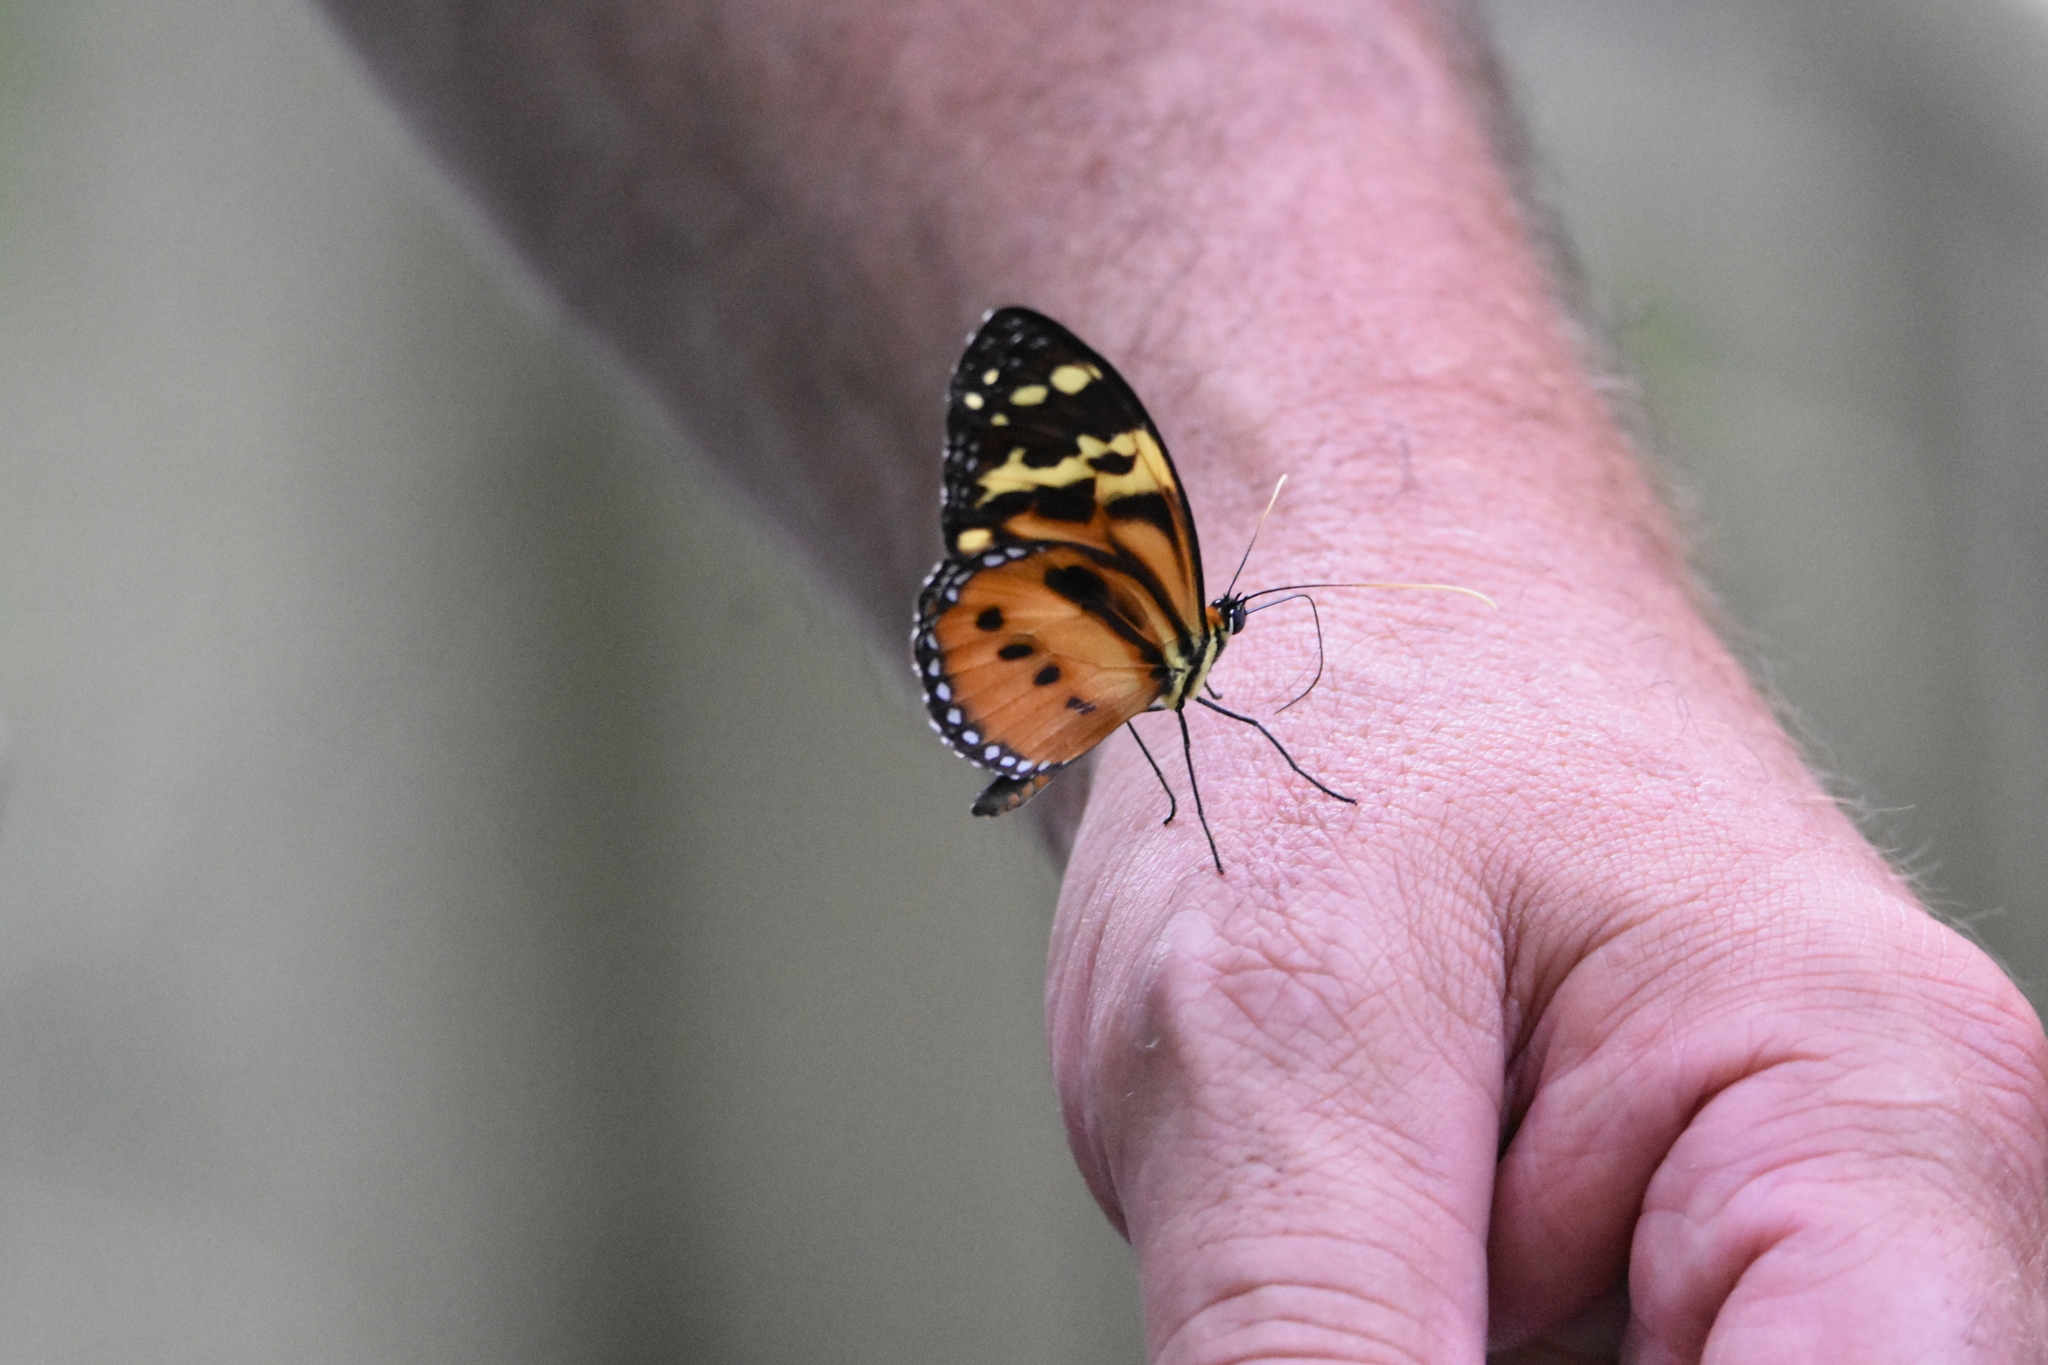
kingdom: Animalia
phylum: Arthropoda
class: Insecta
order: Lepidoptera
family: Nymphalidae
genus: Tithorea
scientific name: Tithorea harmonia
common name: Harmonia tigerwing
